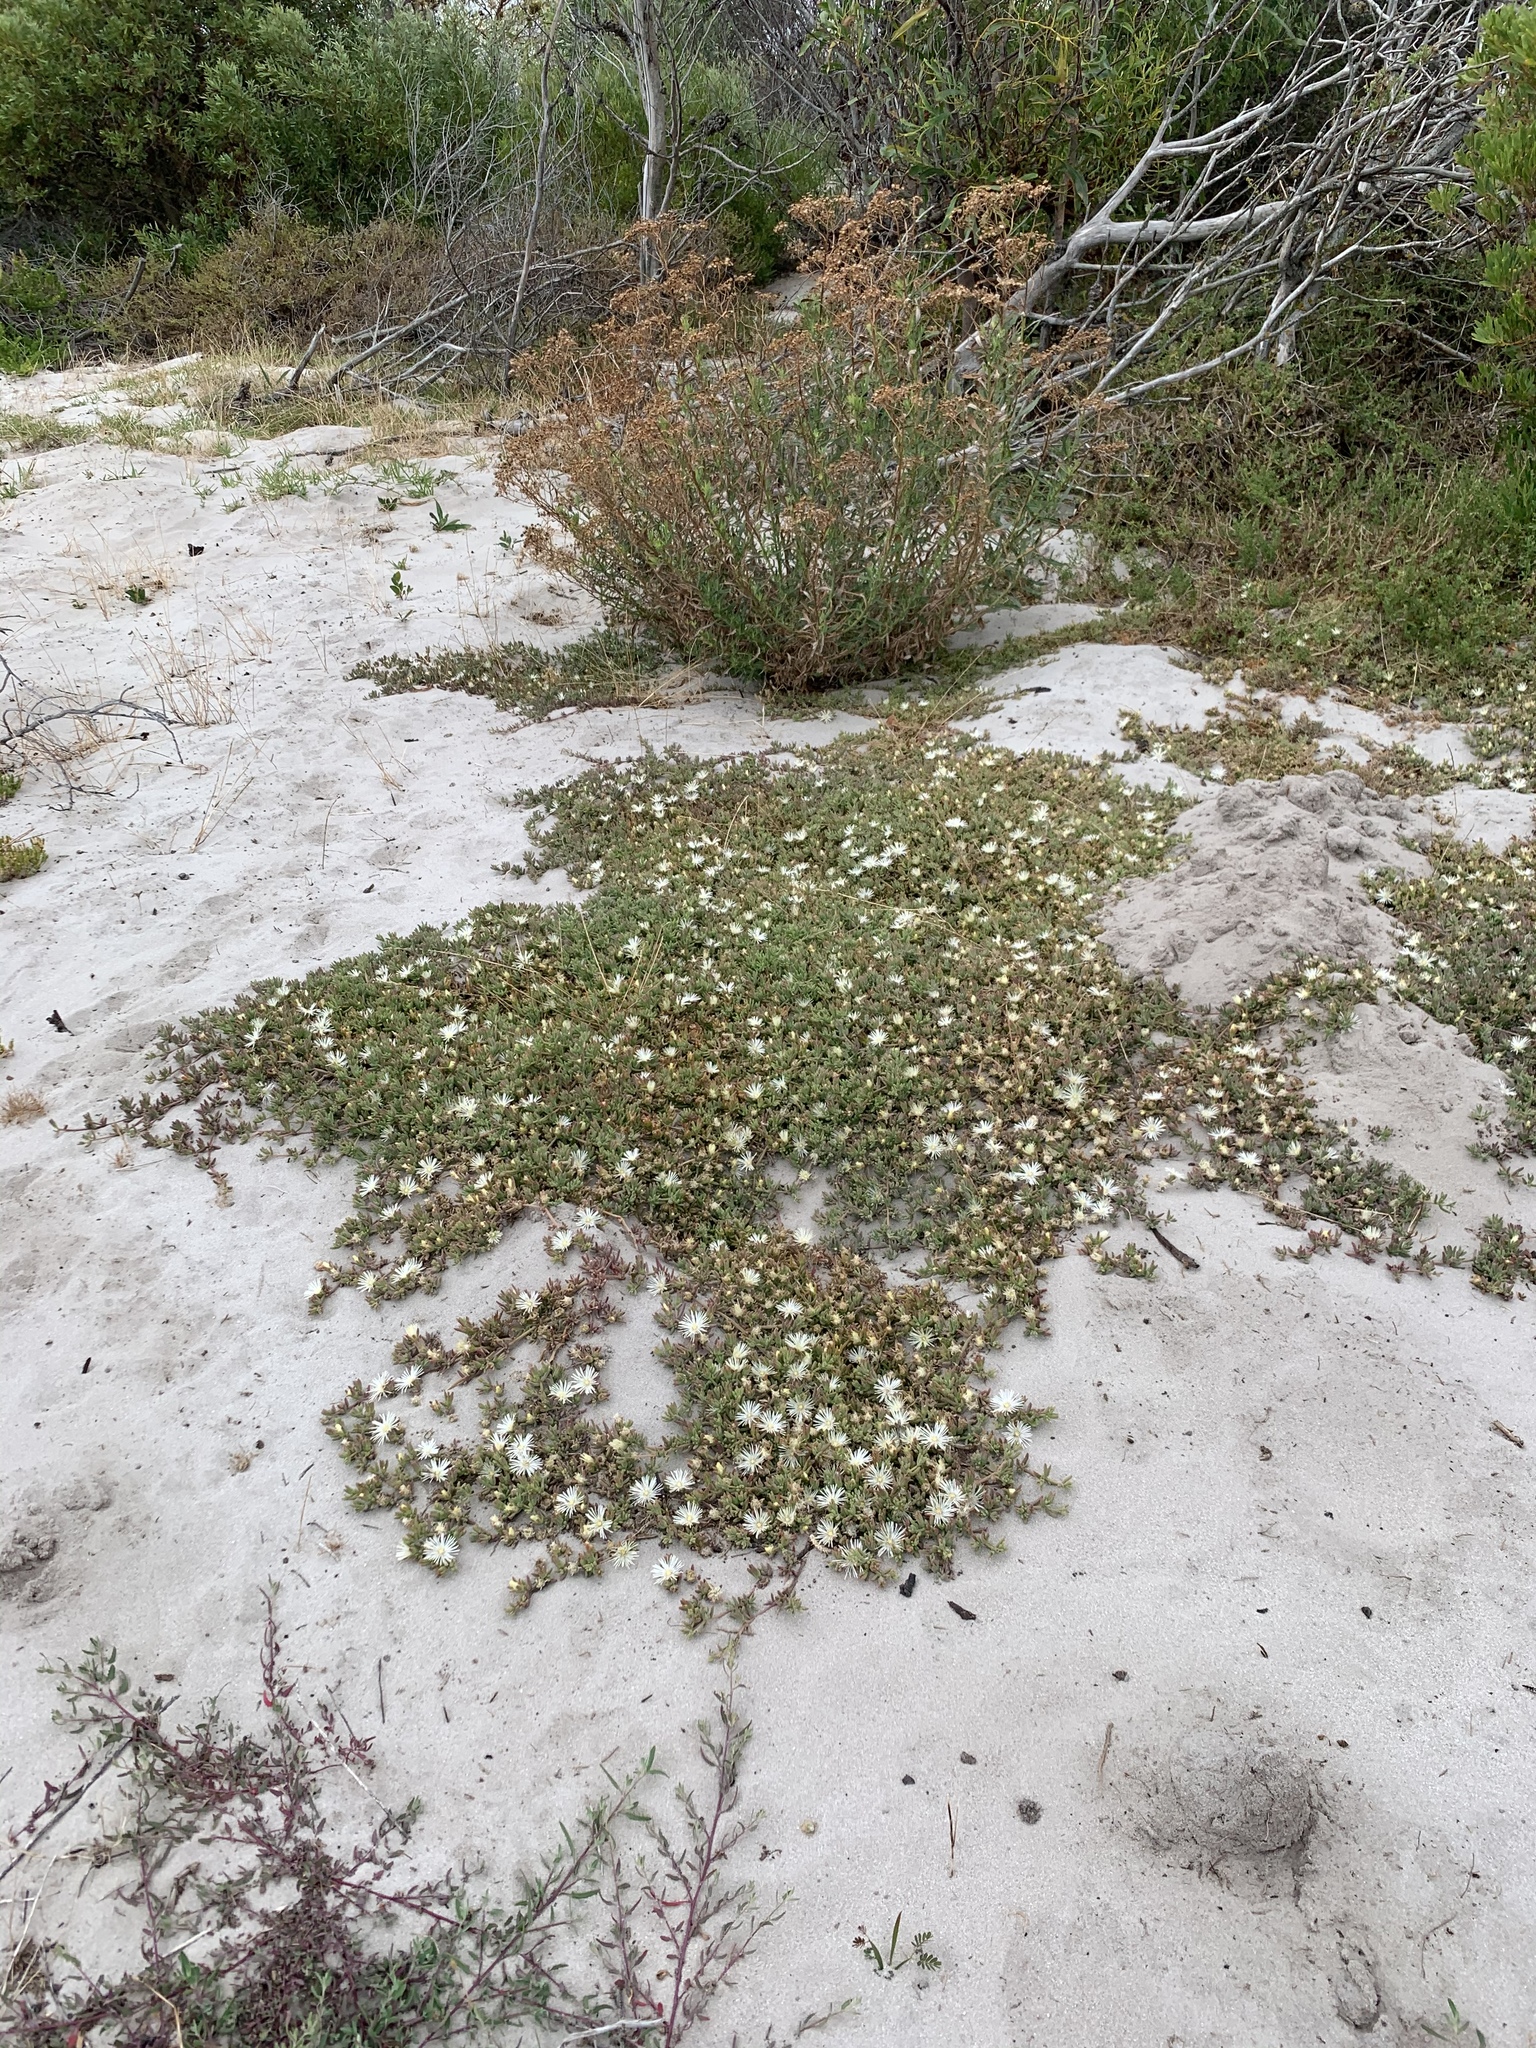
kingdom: Plantae
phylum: Tracheophyta
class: Magnoliopsida
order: Caryophyllales
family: Aizoaceae
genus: Mesembryanthemum
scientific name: Mesembryanthemum canaliculatum
